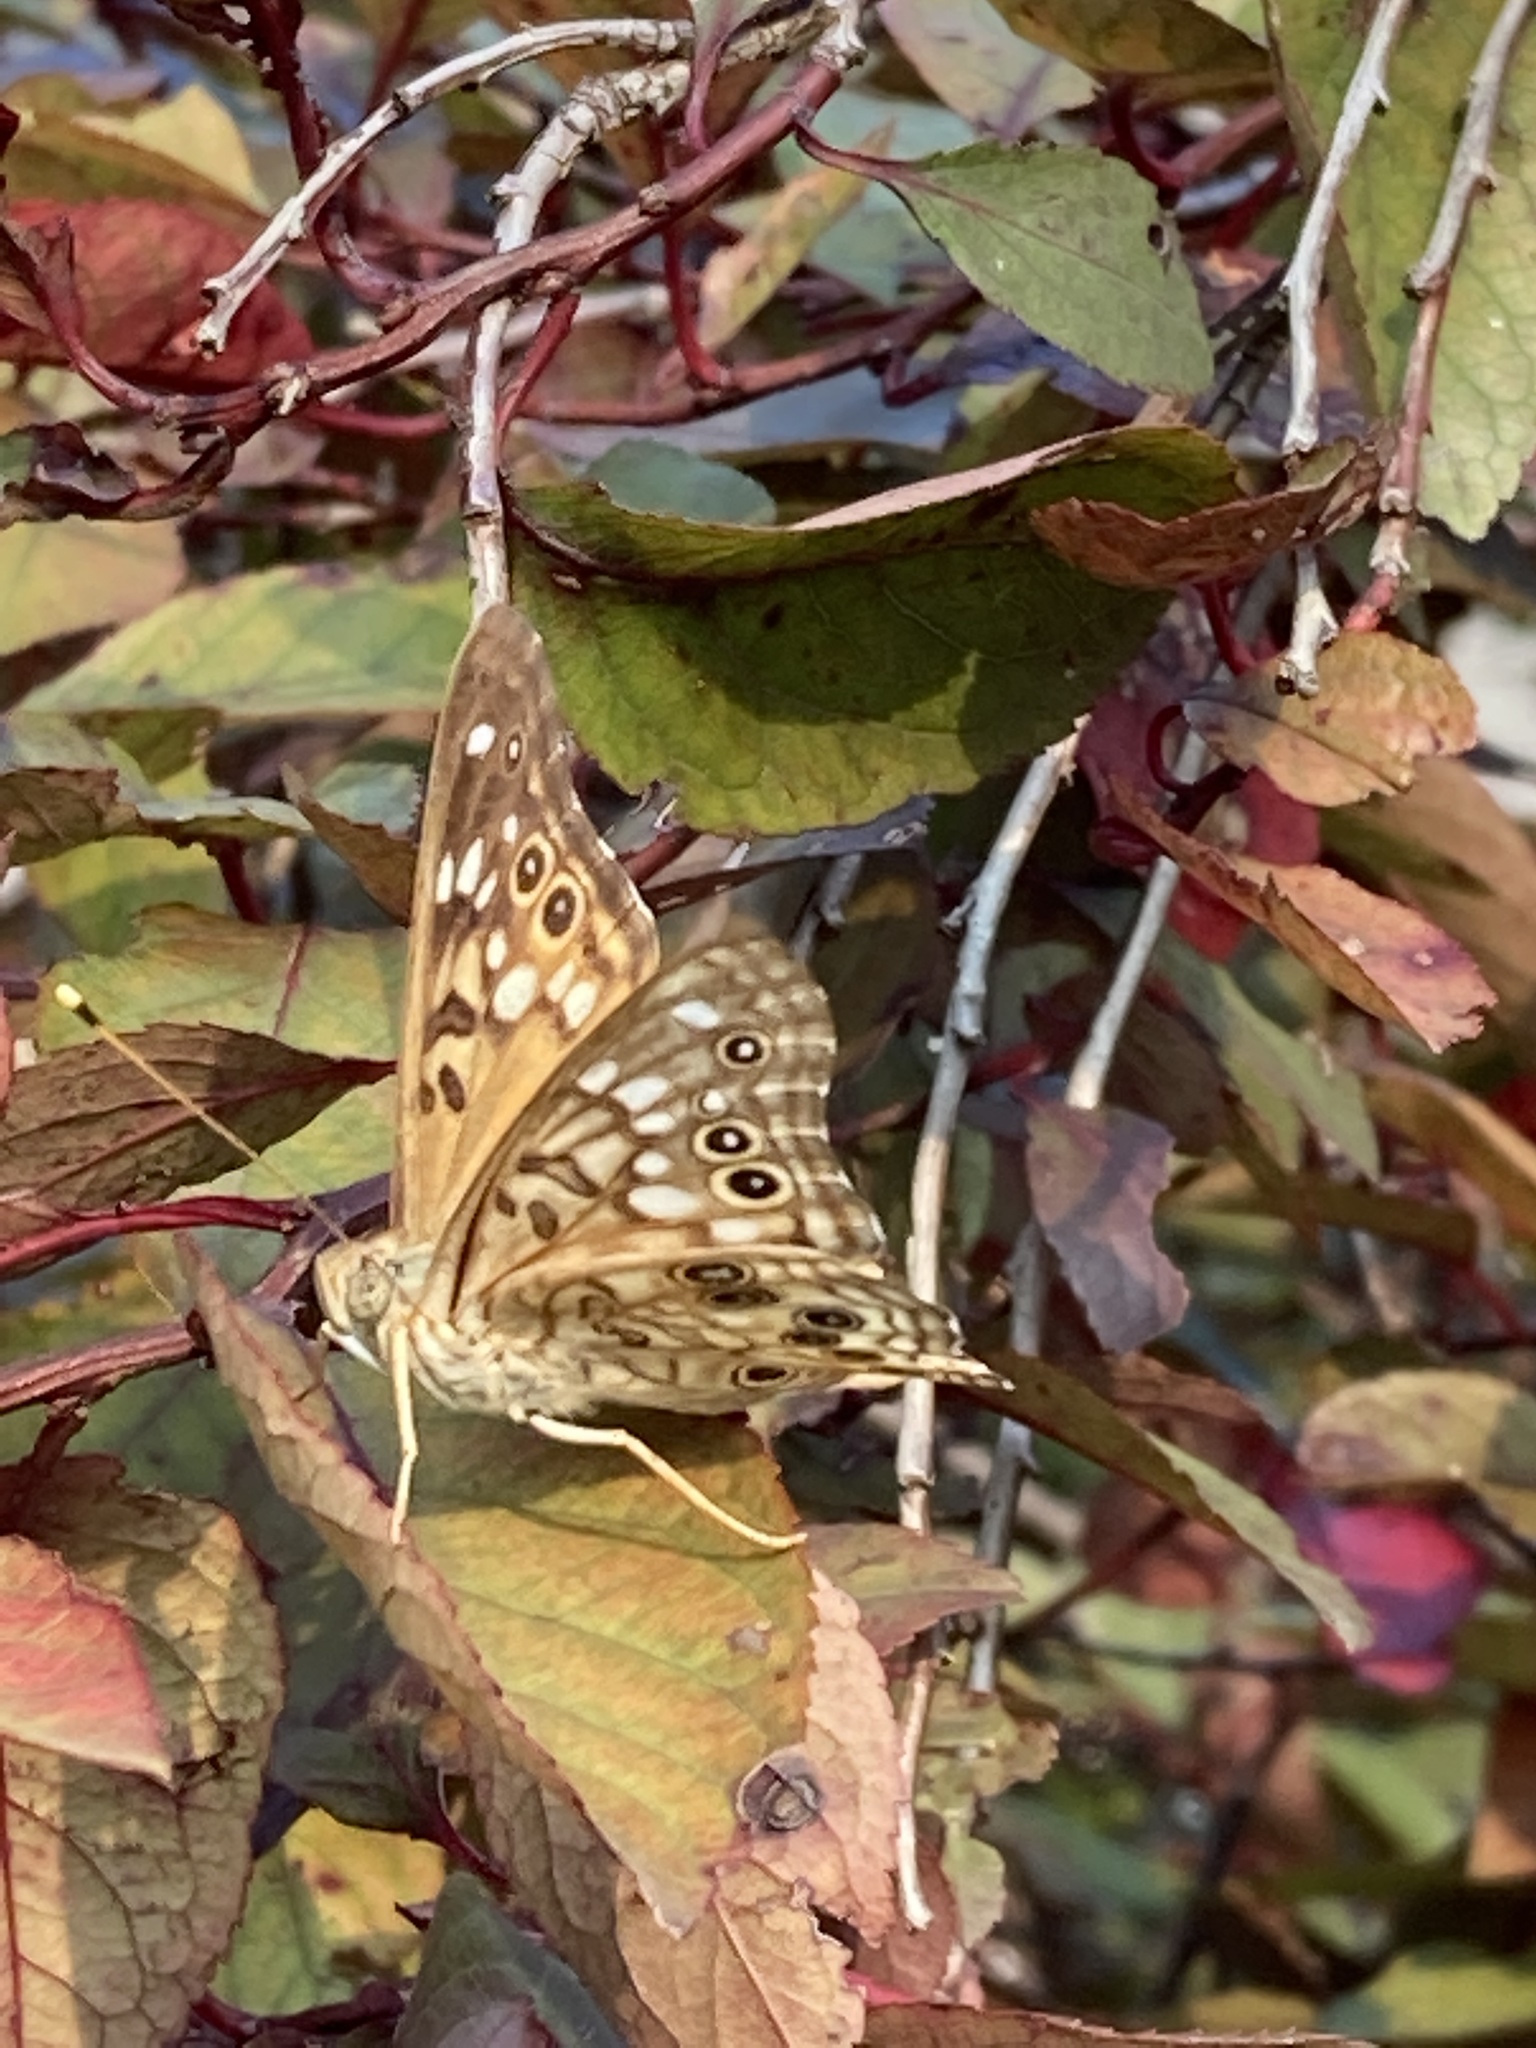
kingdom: Animalia
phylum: Arthropoda
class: Insecta
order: Lepidoptera
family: Nymphalidae
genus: Asterocampa
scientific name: Asterocampa celtis
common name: Hackberry emperor
